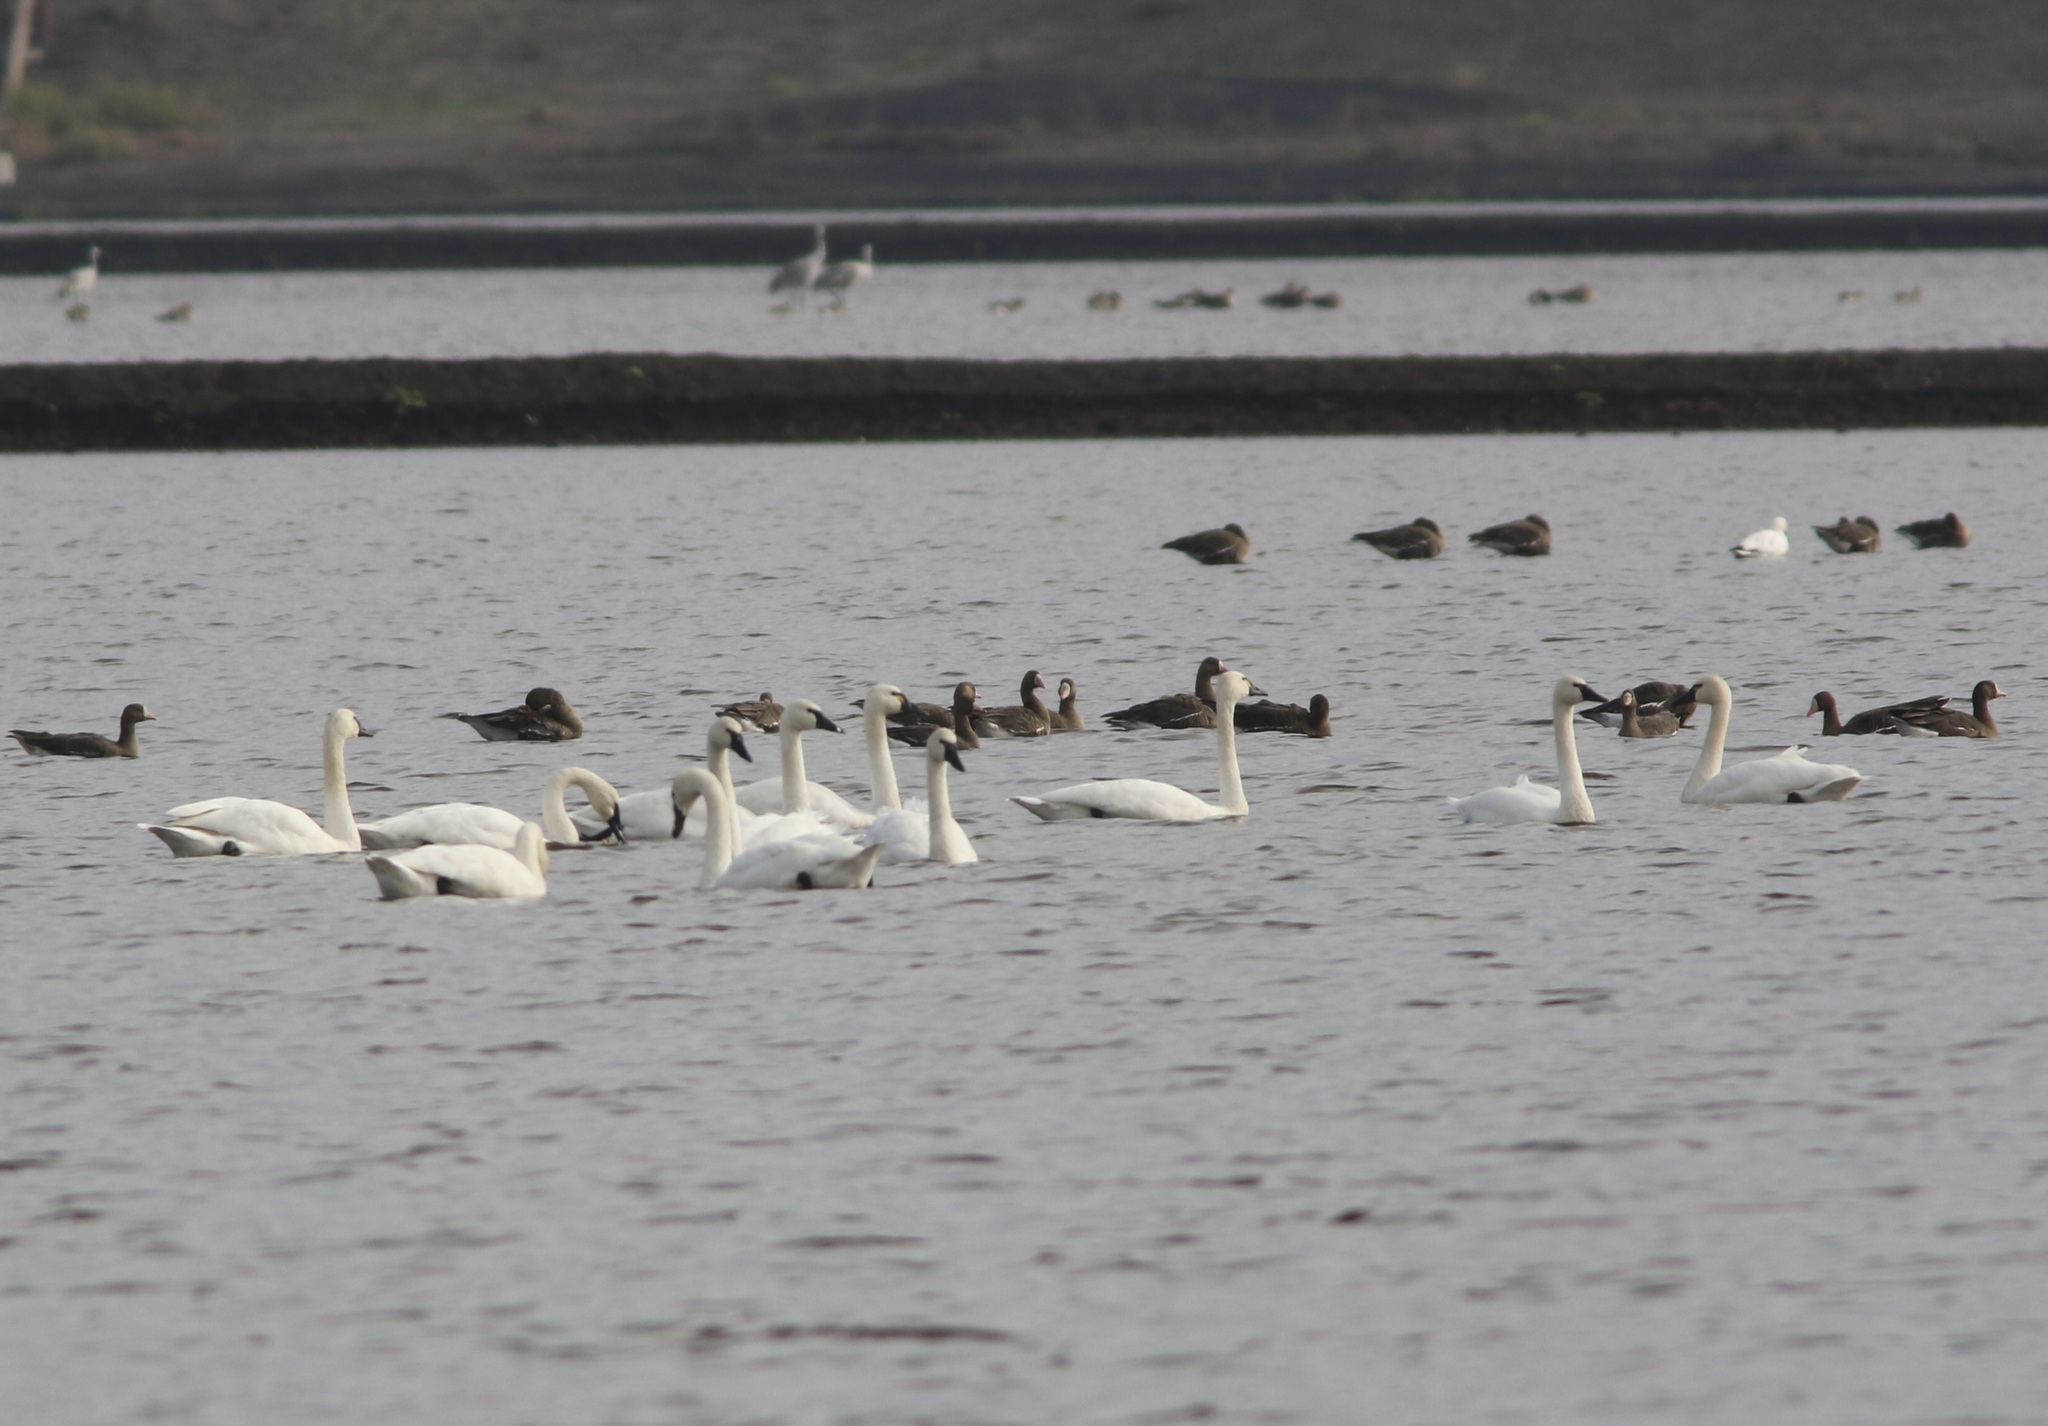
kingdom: Animalia
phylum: Chordata
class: Aves
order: Anseriformes
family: Anatidae
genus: Cygnus
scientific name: Cygnus columbianus
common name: Tundra swan
